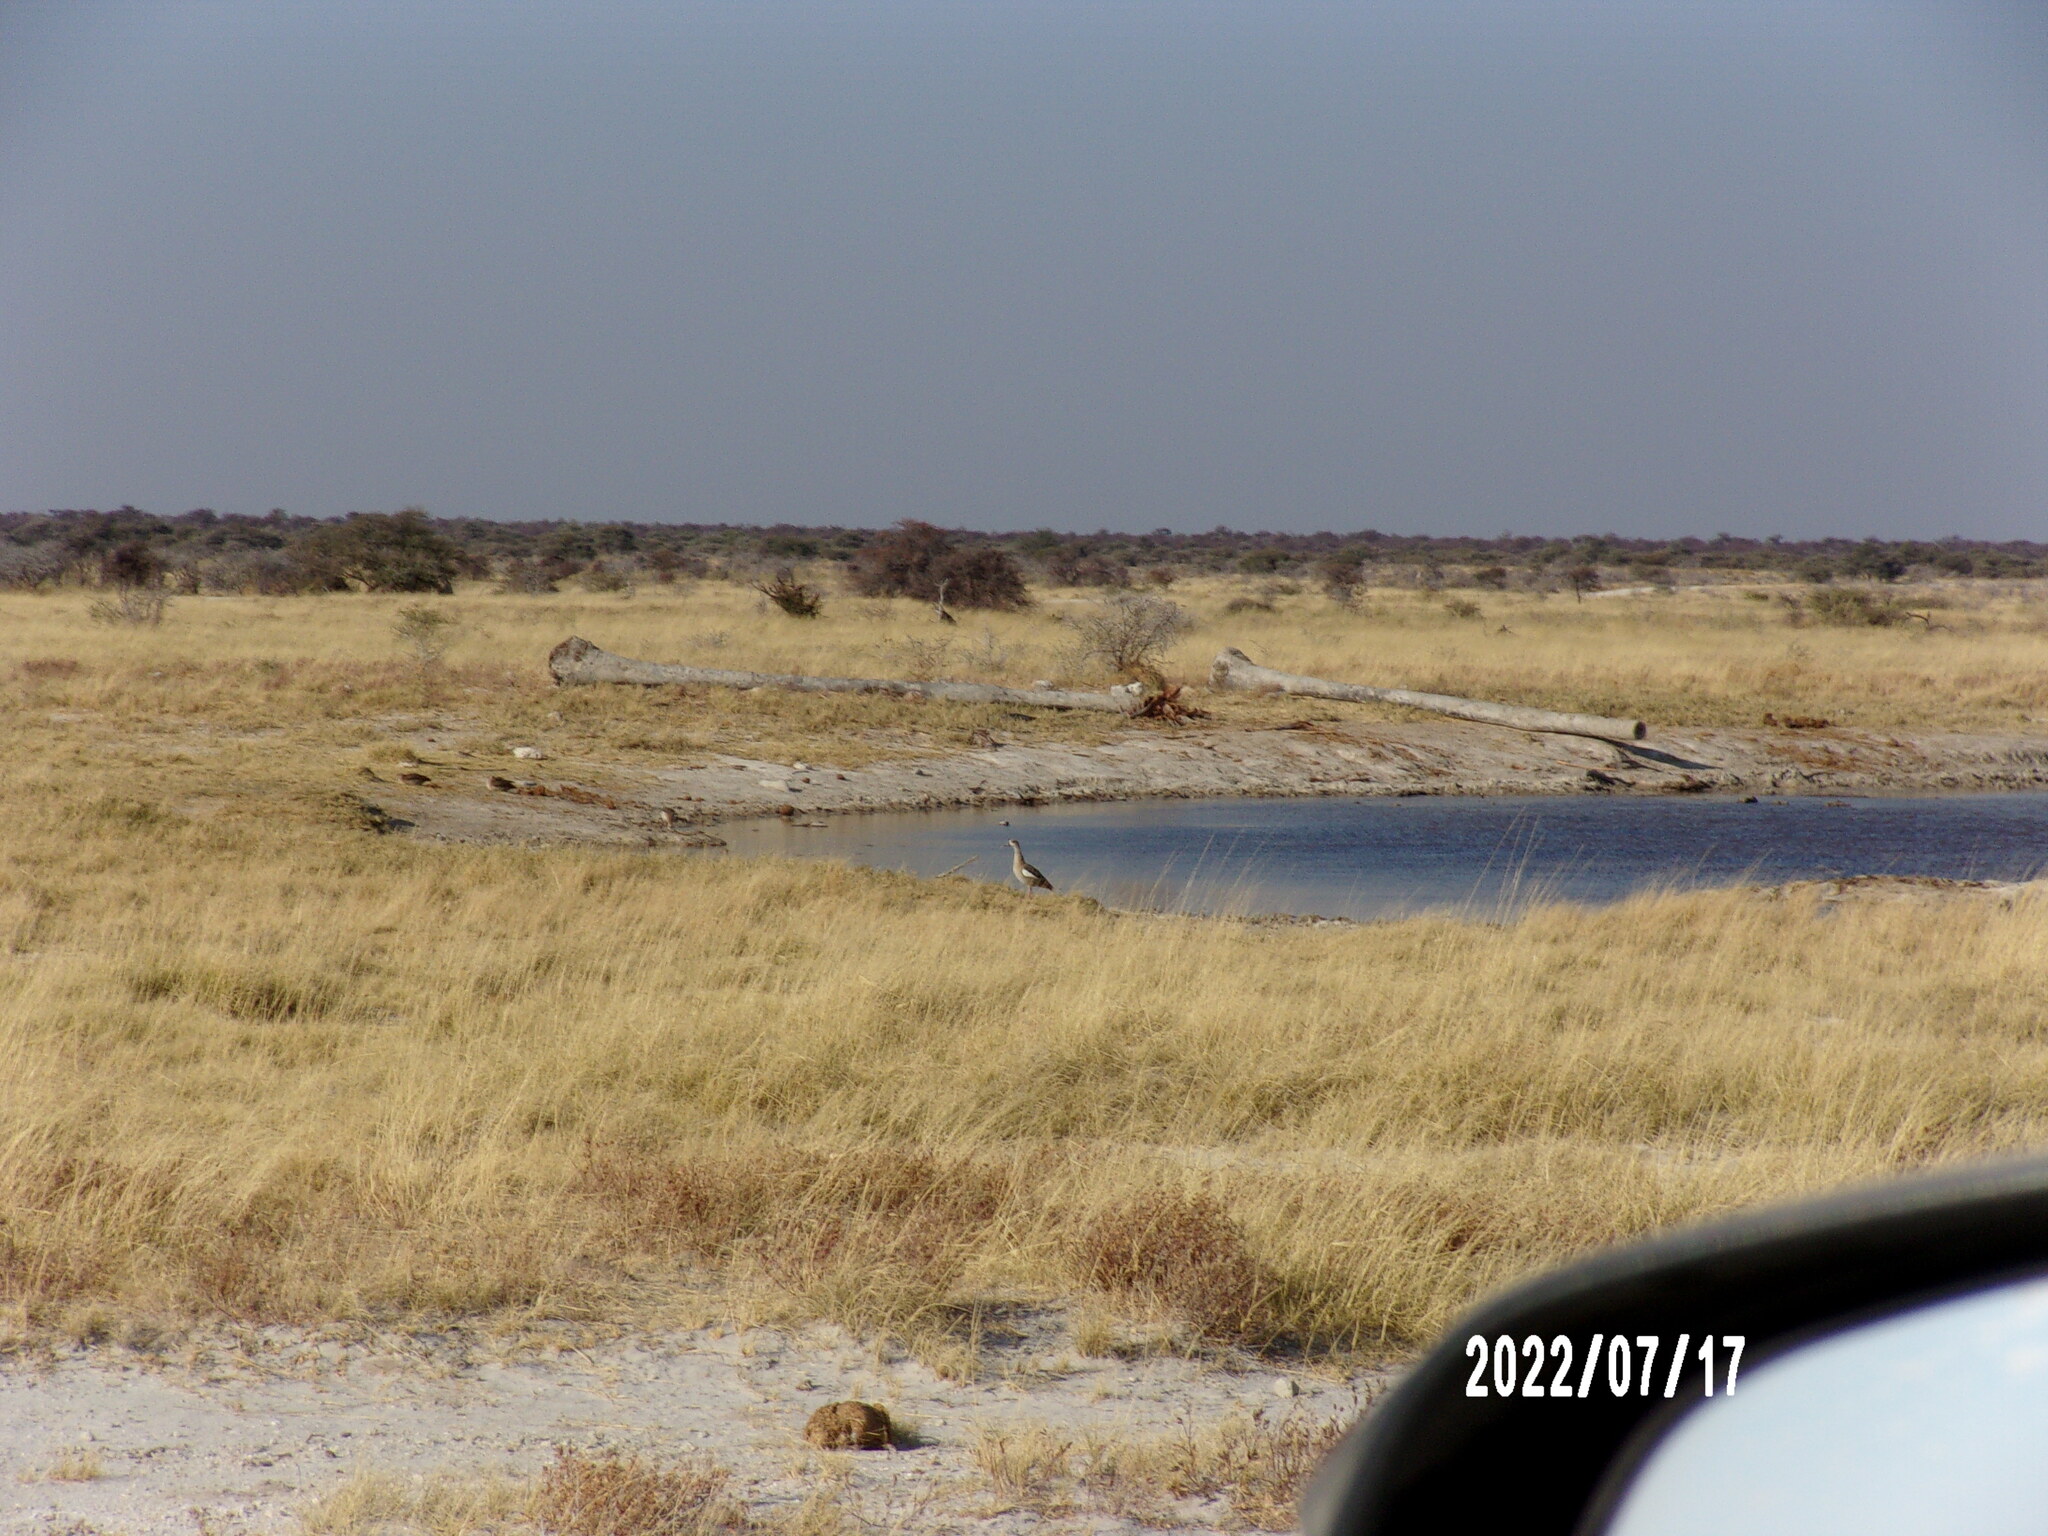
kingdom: Animalia
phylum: Chordata
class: Aves
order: Anseriformes
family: Anatidae
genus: Alopochen
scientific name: Alopochen aegyptiaca
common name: Egyptian goose
